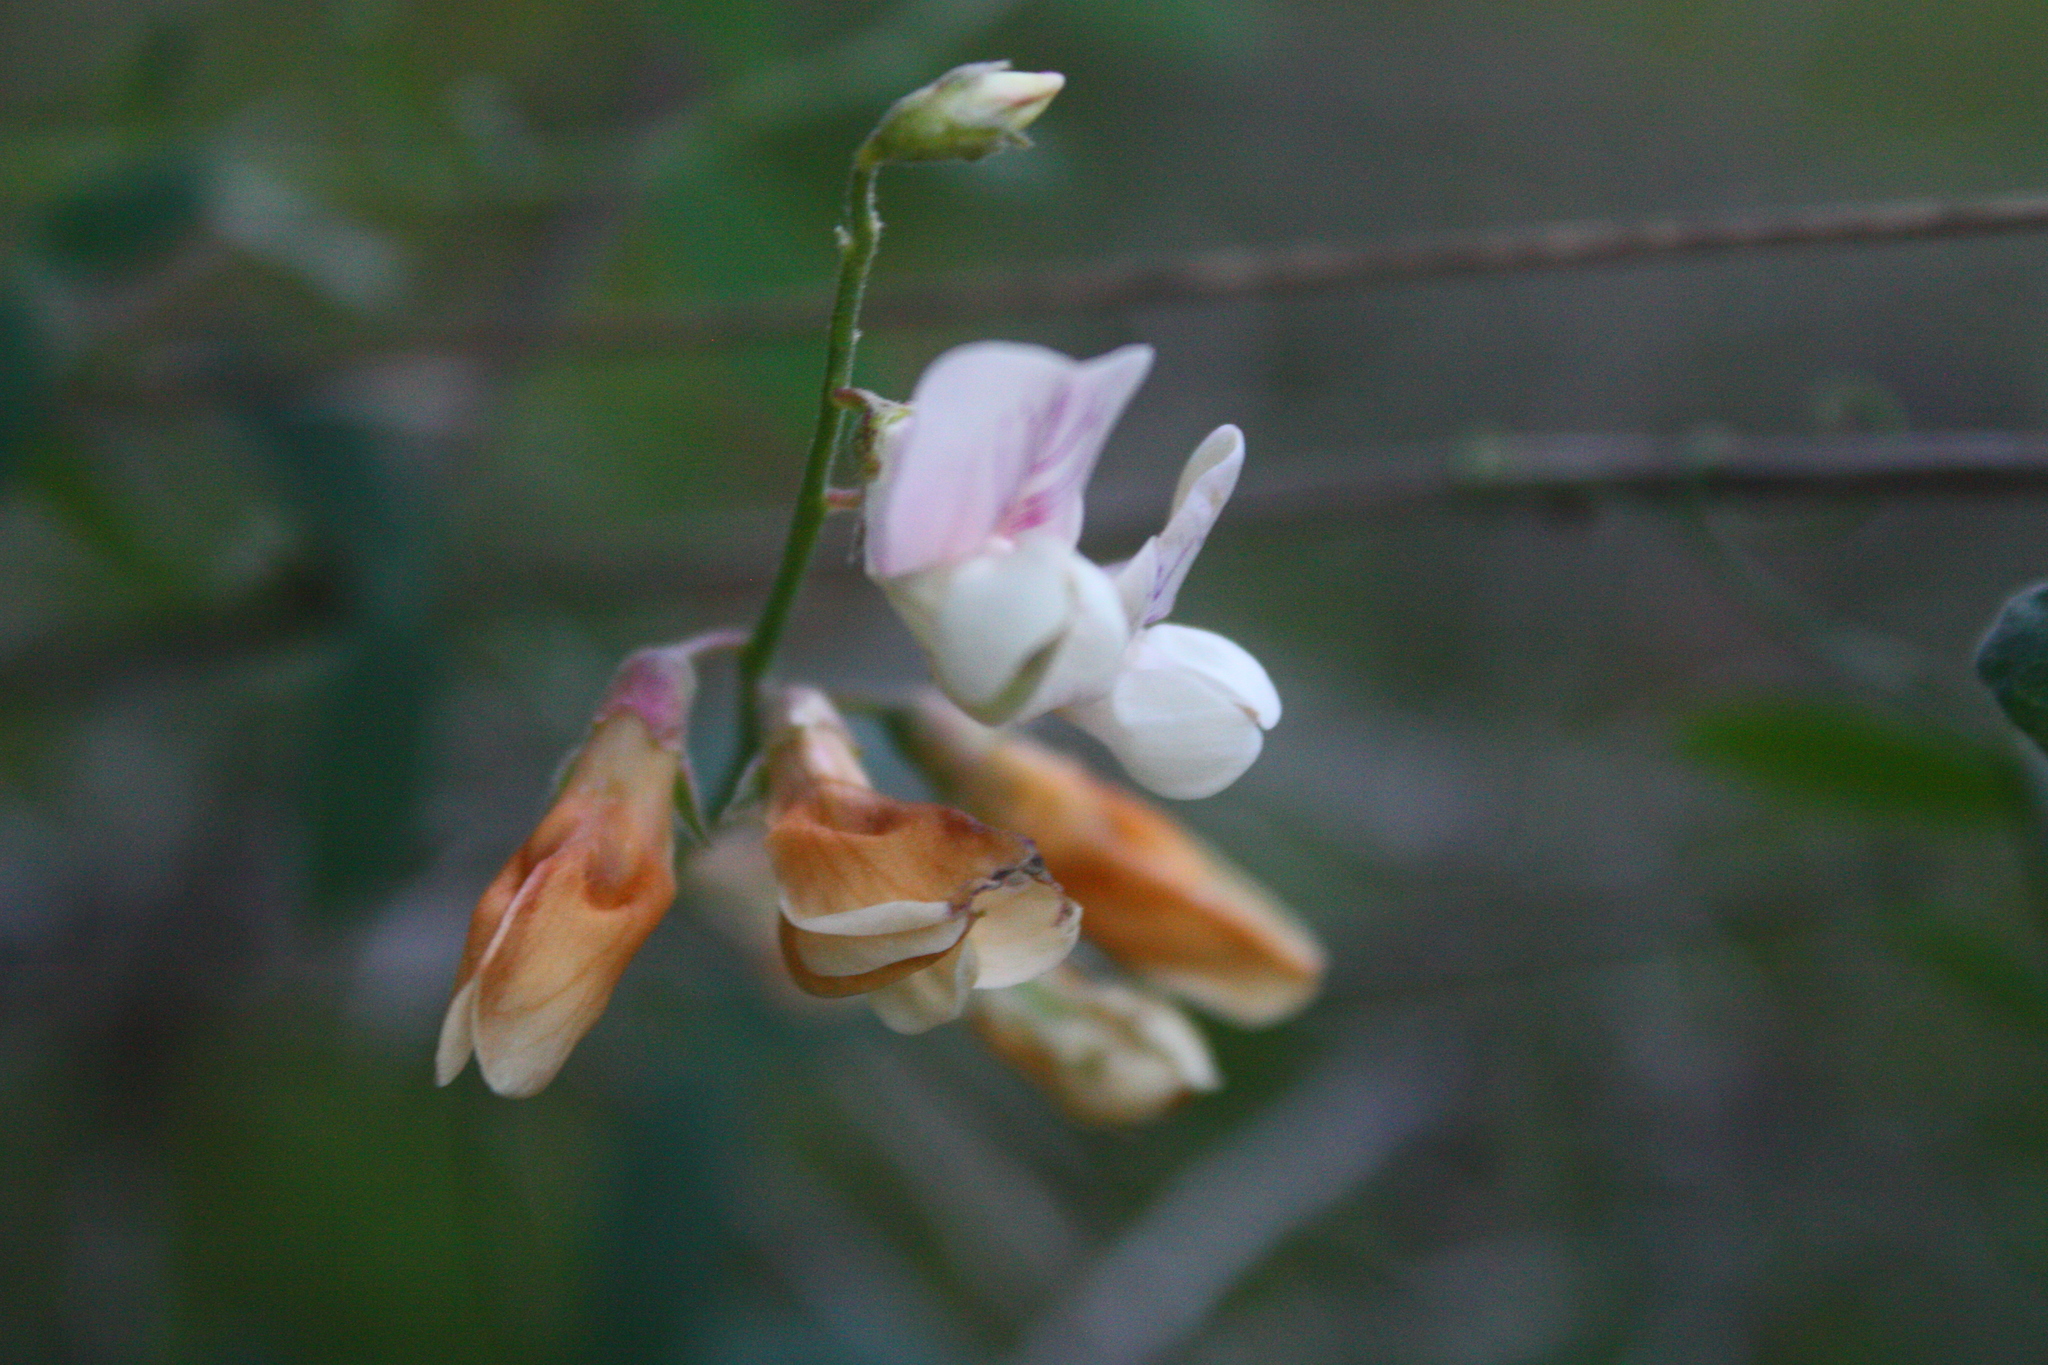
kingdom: Plantae
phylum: Tracheophyta
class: Magnoliopsida
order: Fabales
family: Fabaceae
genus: Lathyrus
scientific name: Lathyrus vestitus
